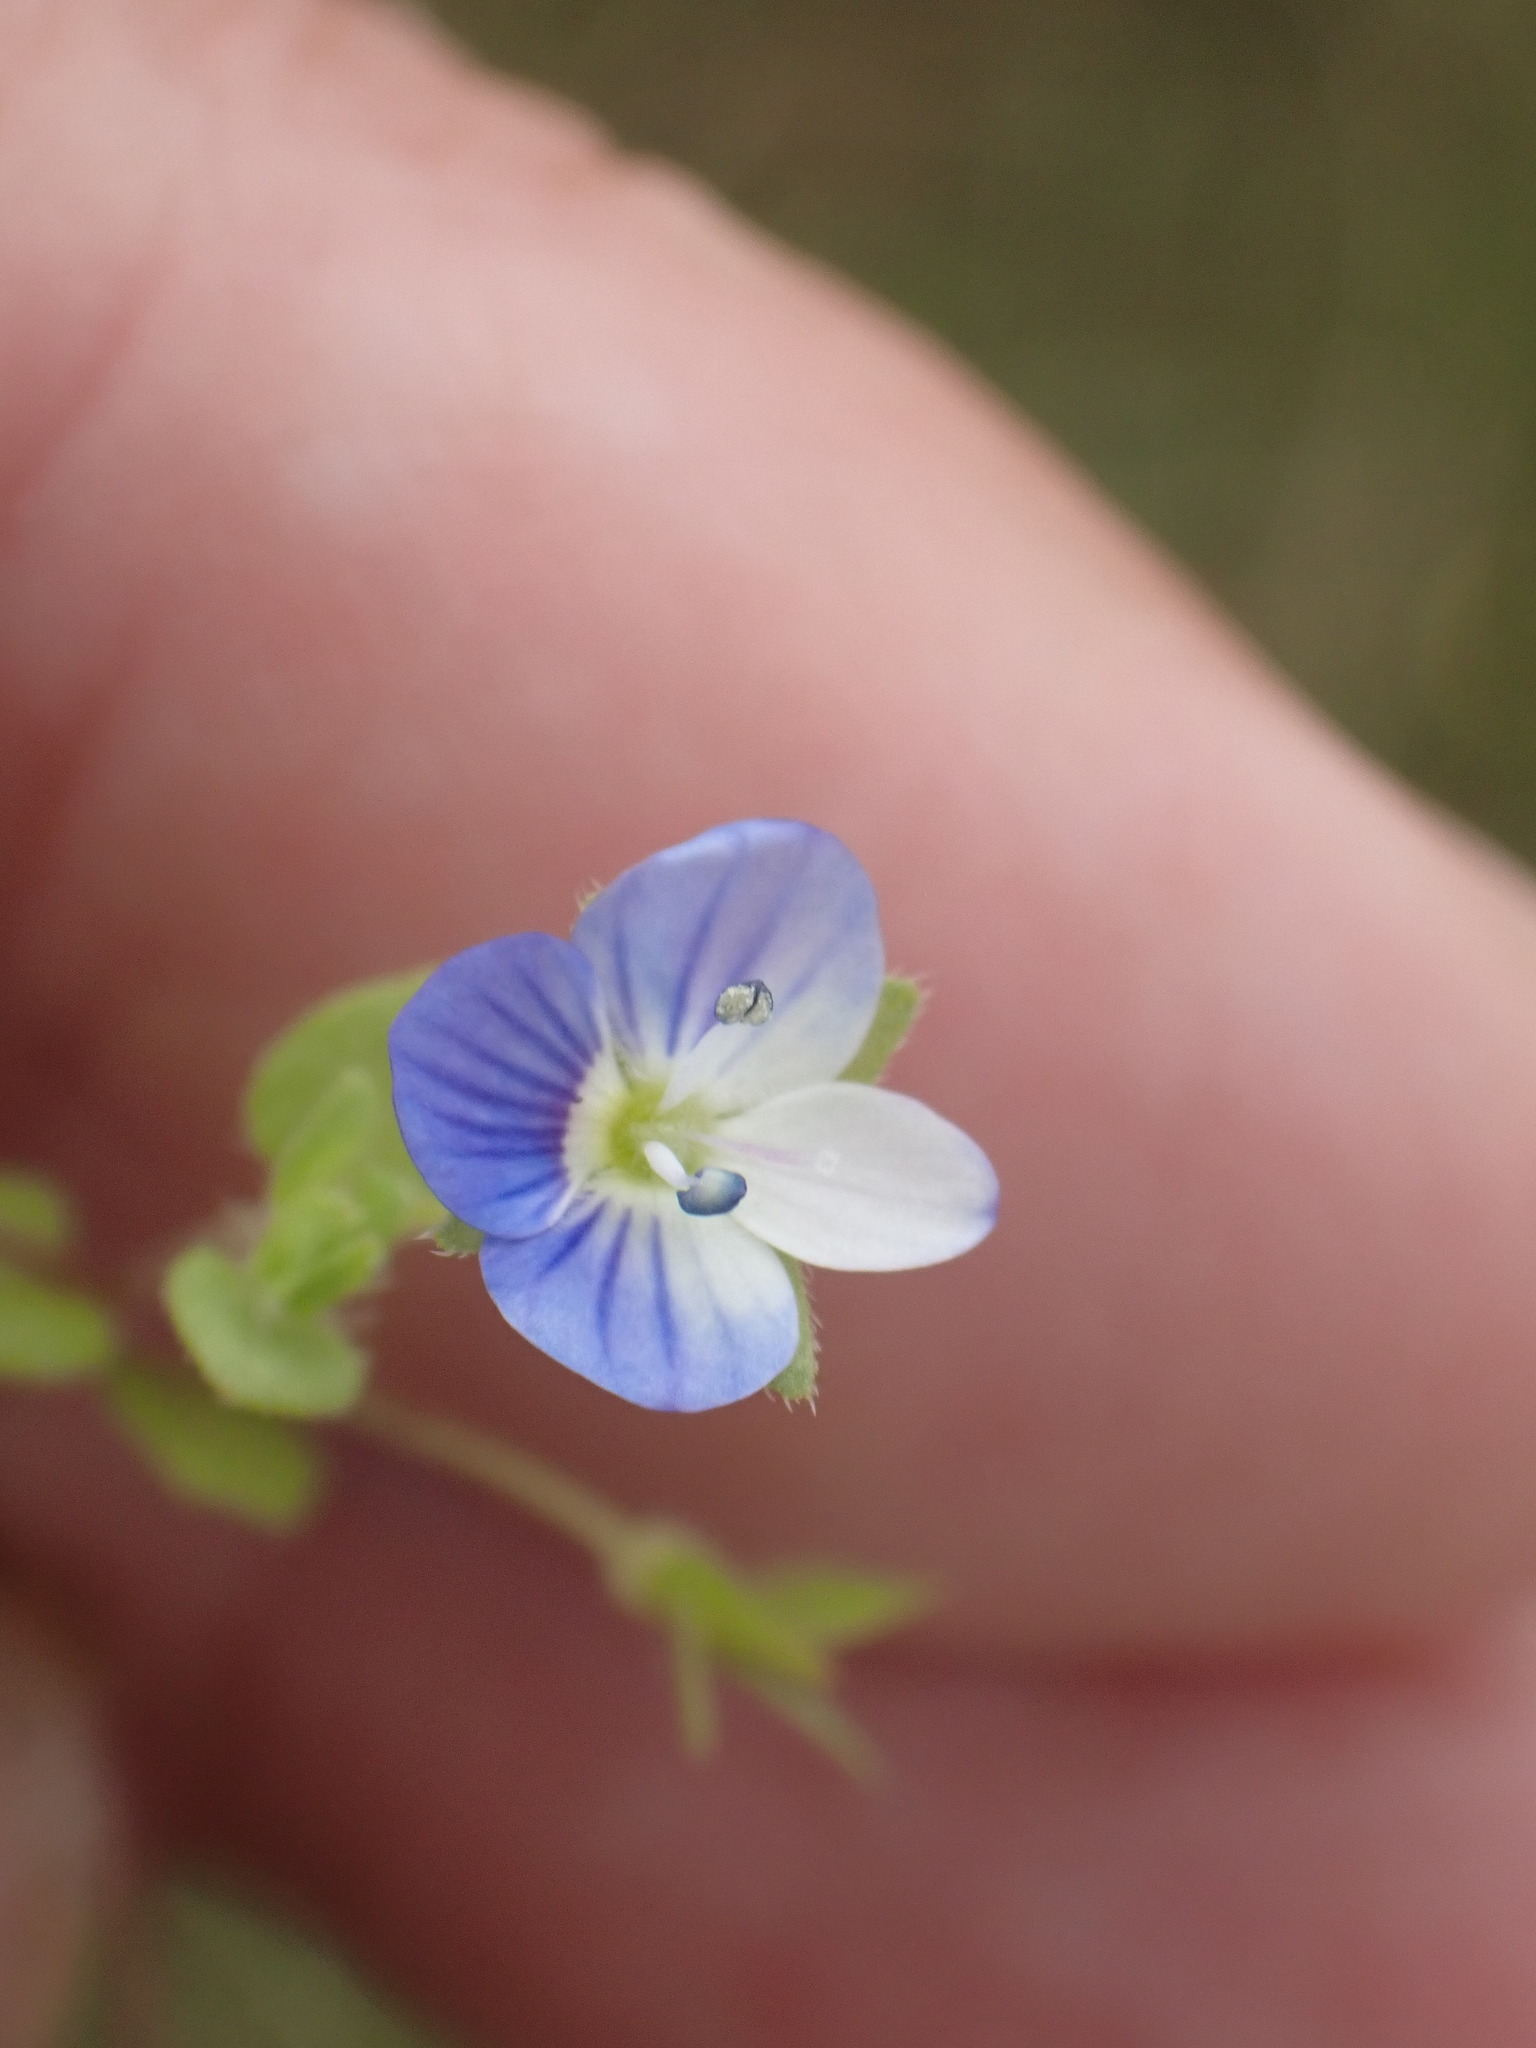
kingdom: Plantae
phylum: Tracheophyta
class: Magnoliopsida
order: Lamiales
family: Plantaginaceae
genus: Veronica
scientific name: Veronica persica
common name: Common field-speedwell
